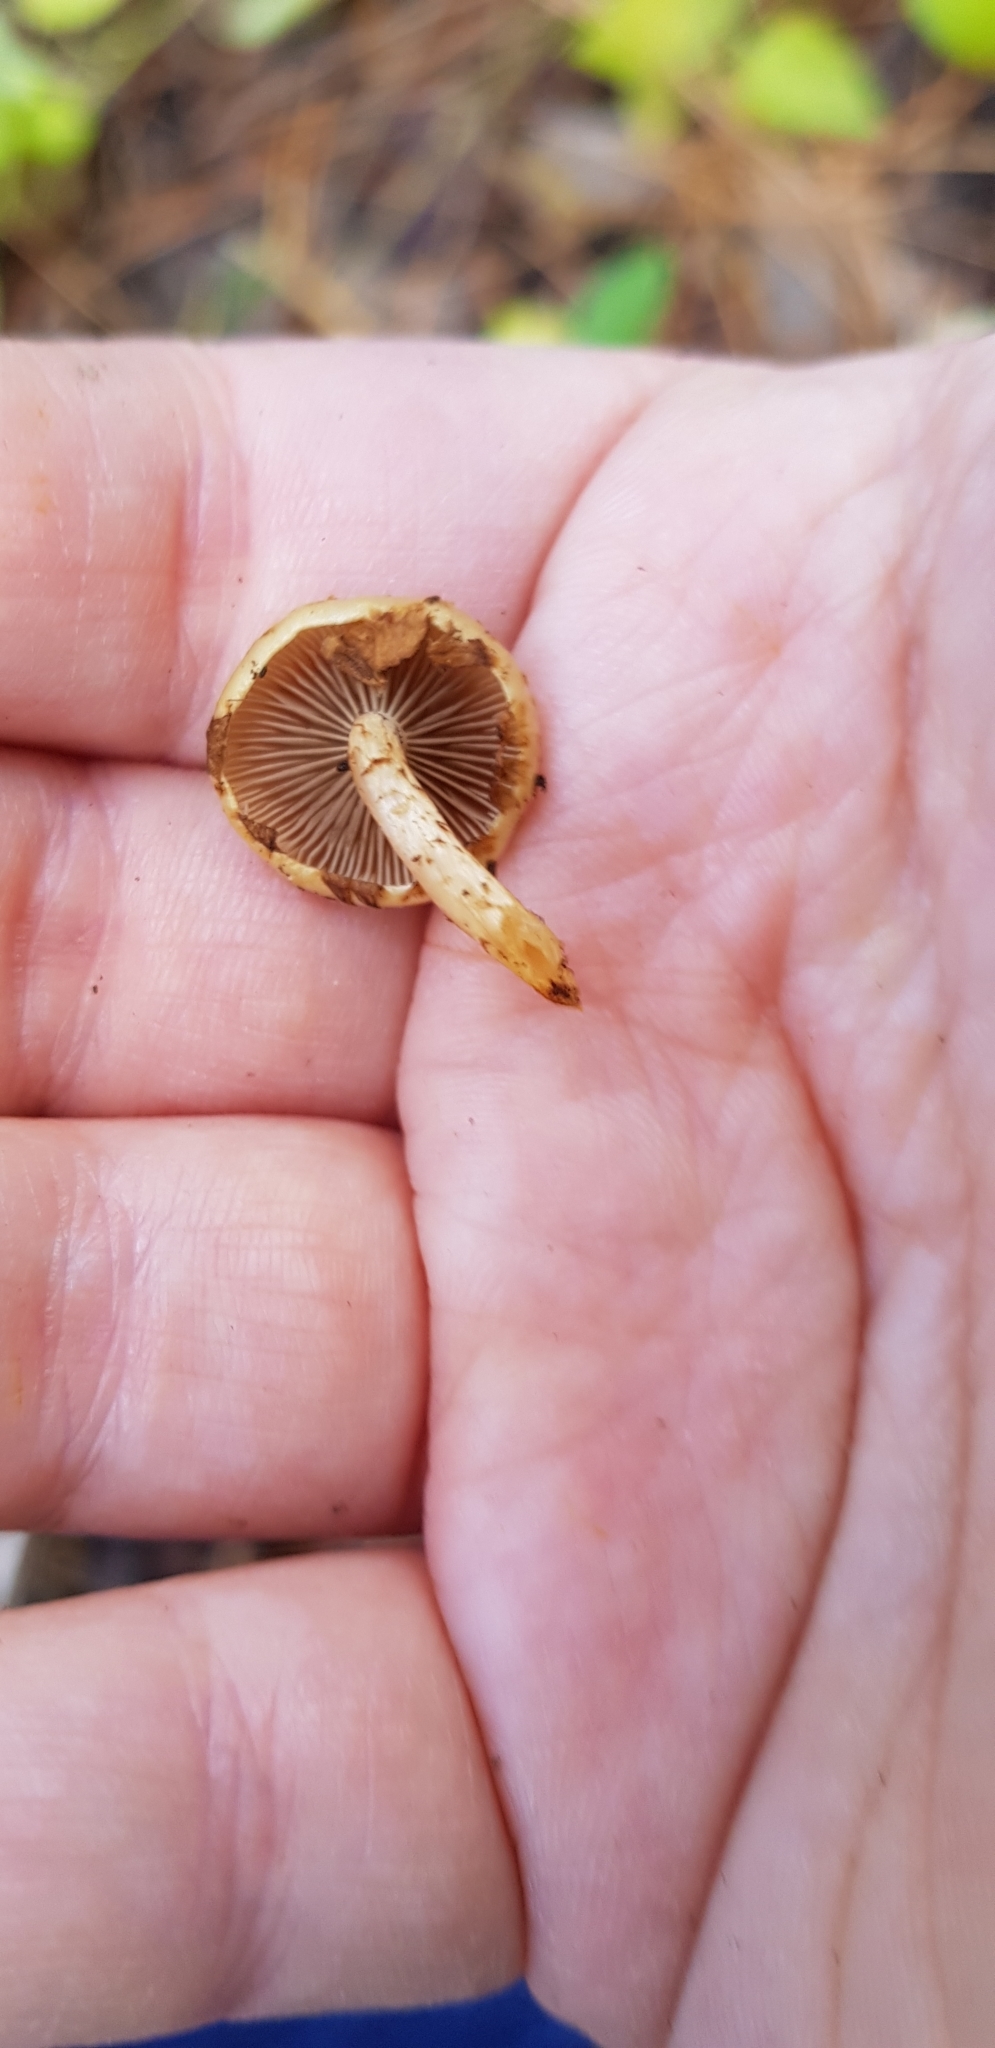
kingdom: Fungi
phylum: Basidiomycota
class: Agaricomycetes
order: Agaricales
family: Strophariaceae
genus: Pholiota
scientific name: Pholiota subflammans
